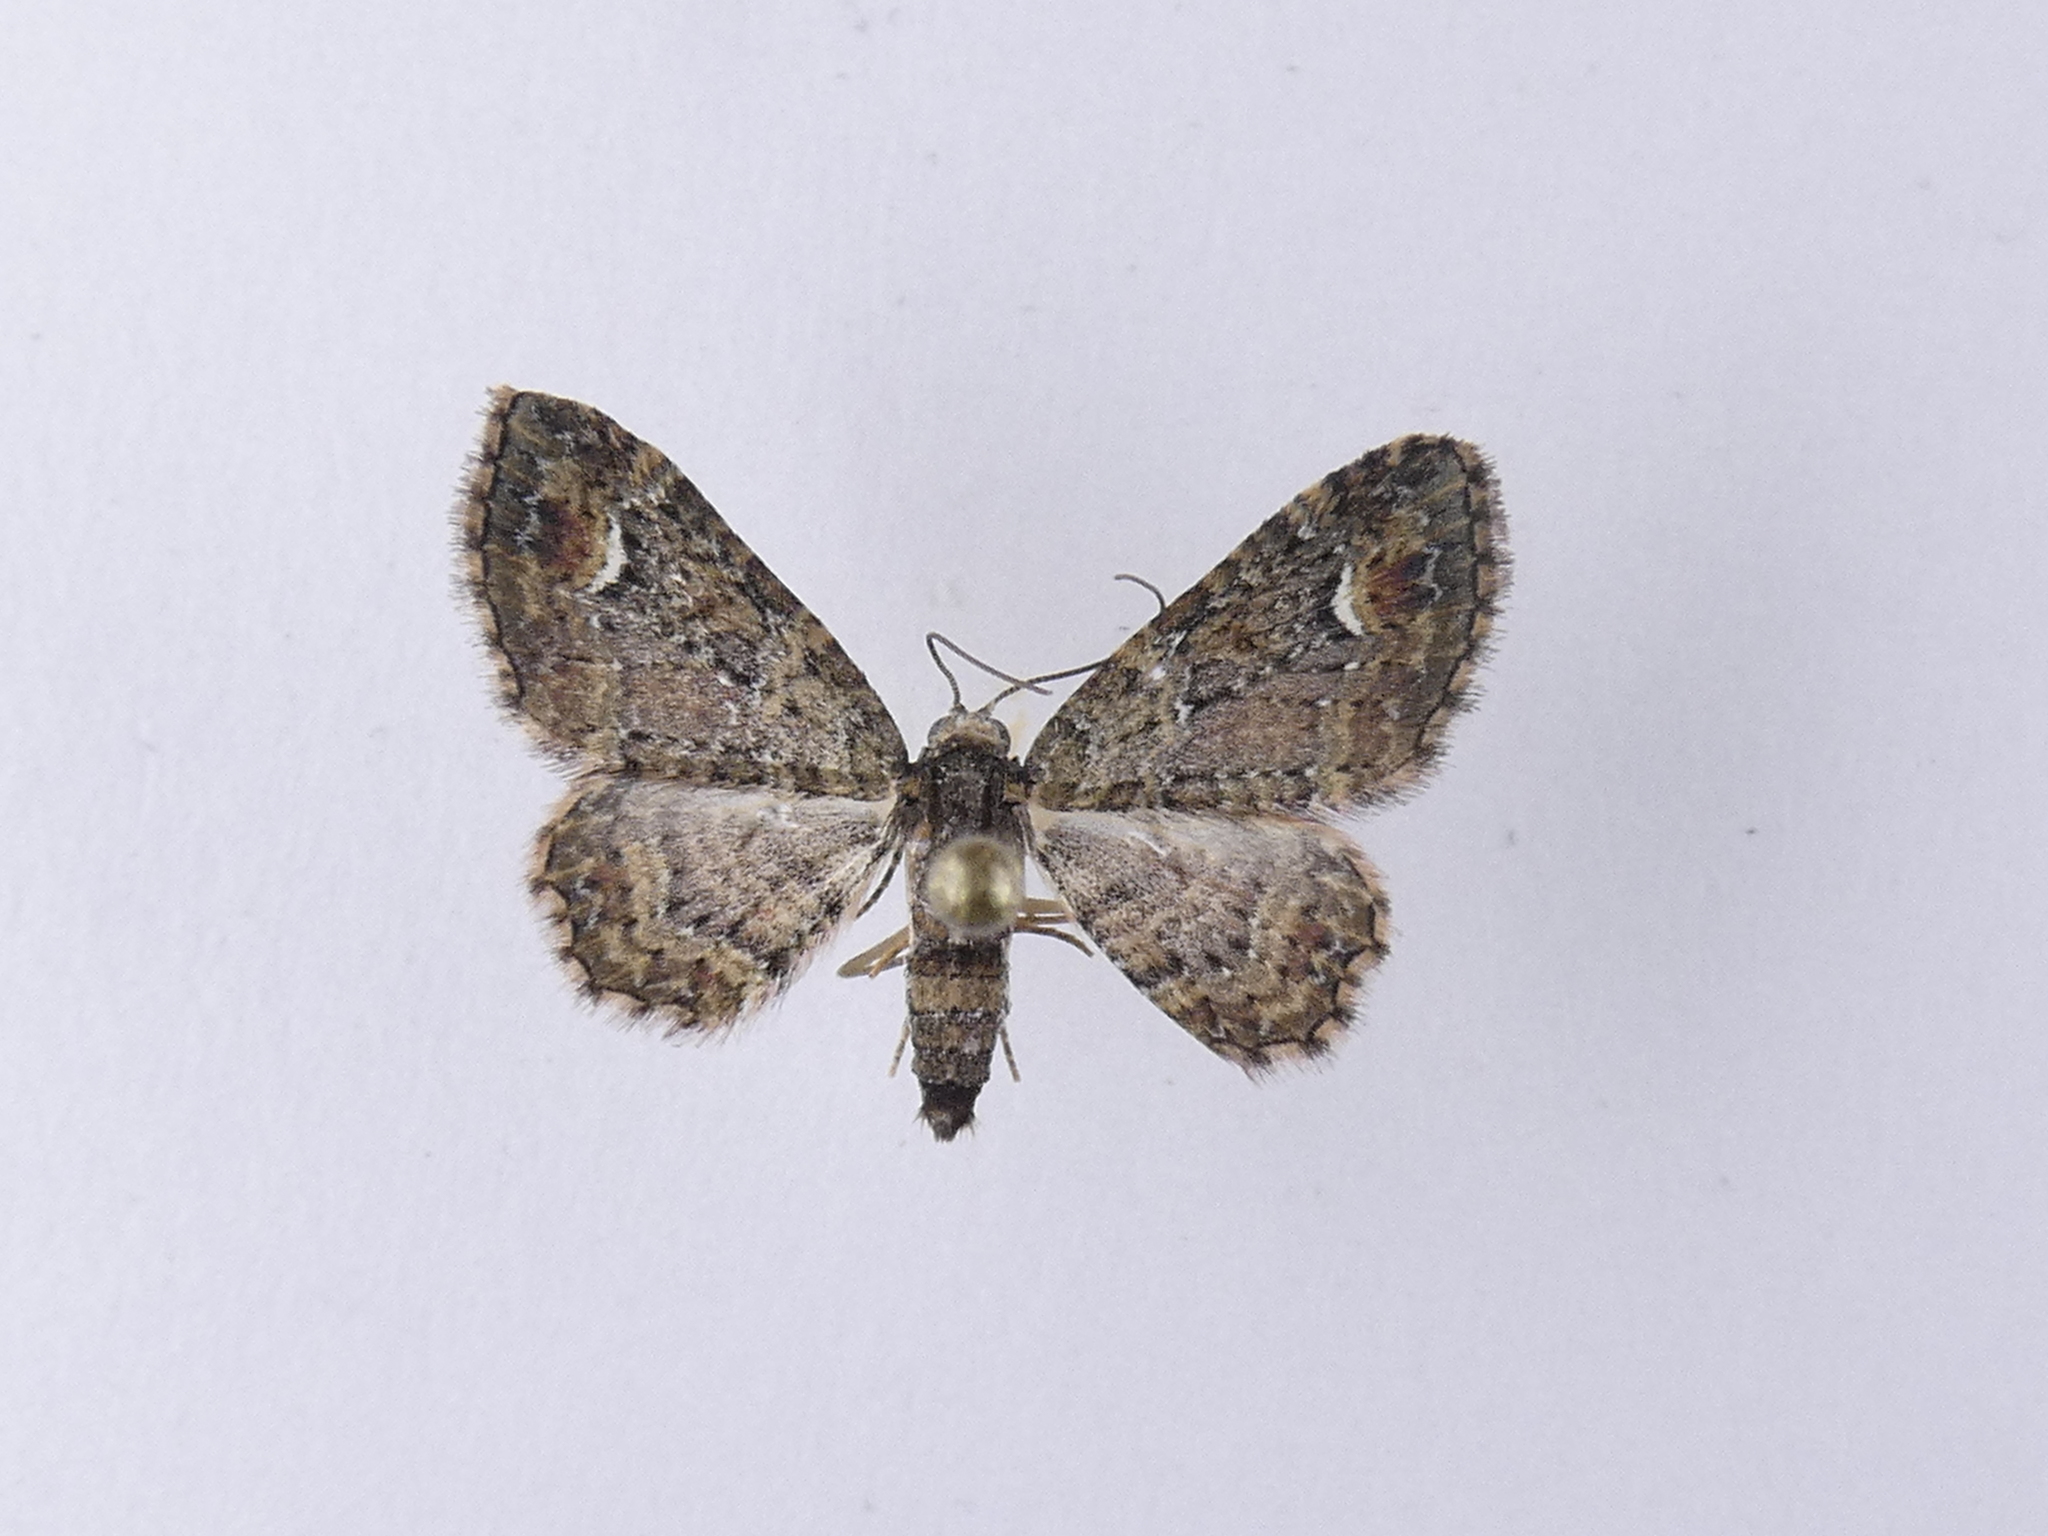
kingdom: Animalia
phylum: Arthropoda
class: Insecta
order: Lepidoptera
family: Geometridae
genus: Pasiphilodes
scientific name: Pasiphilodes testulata
